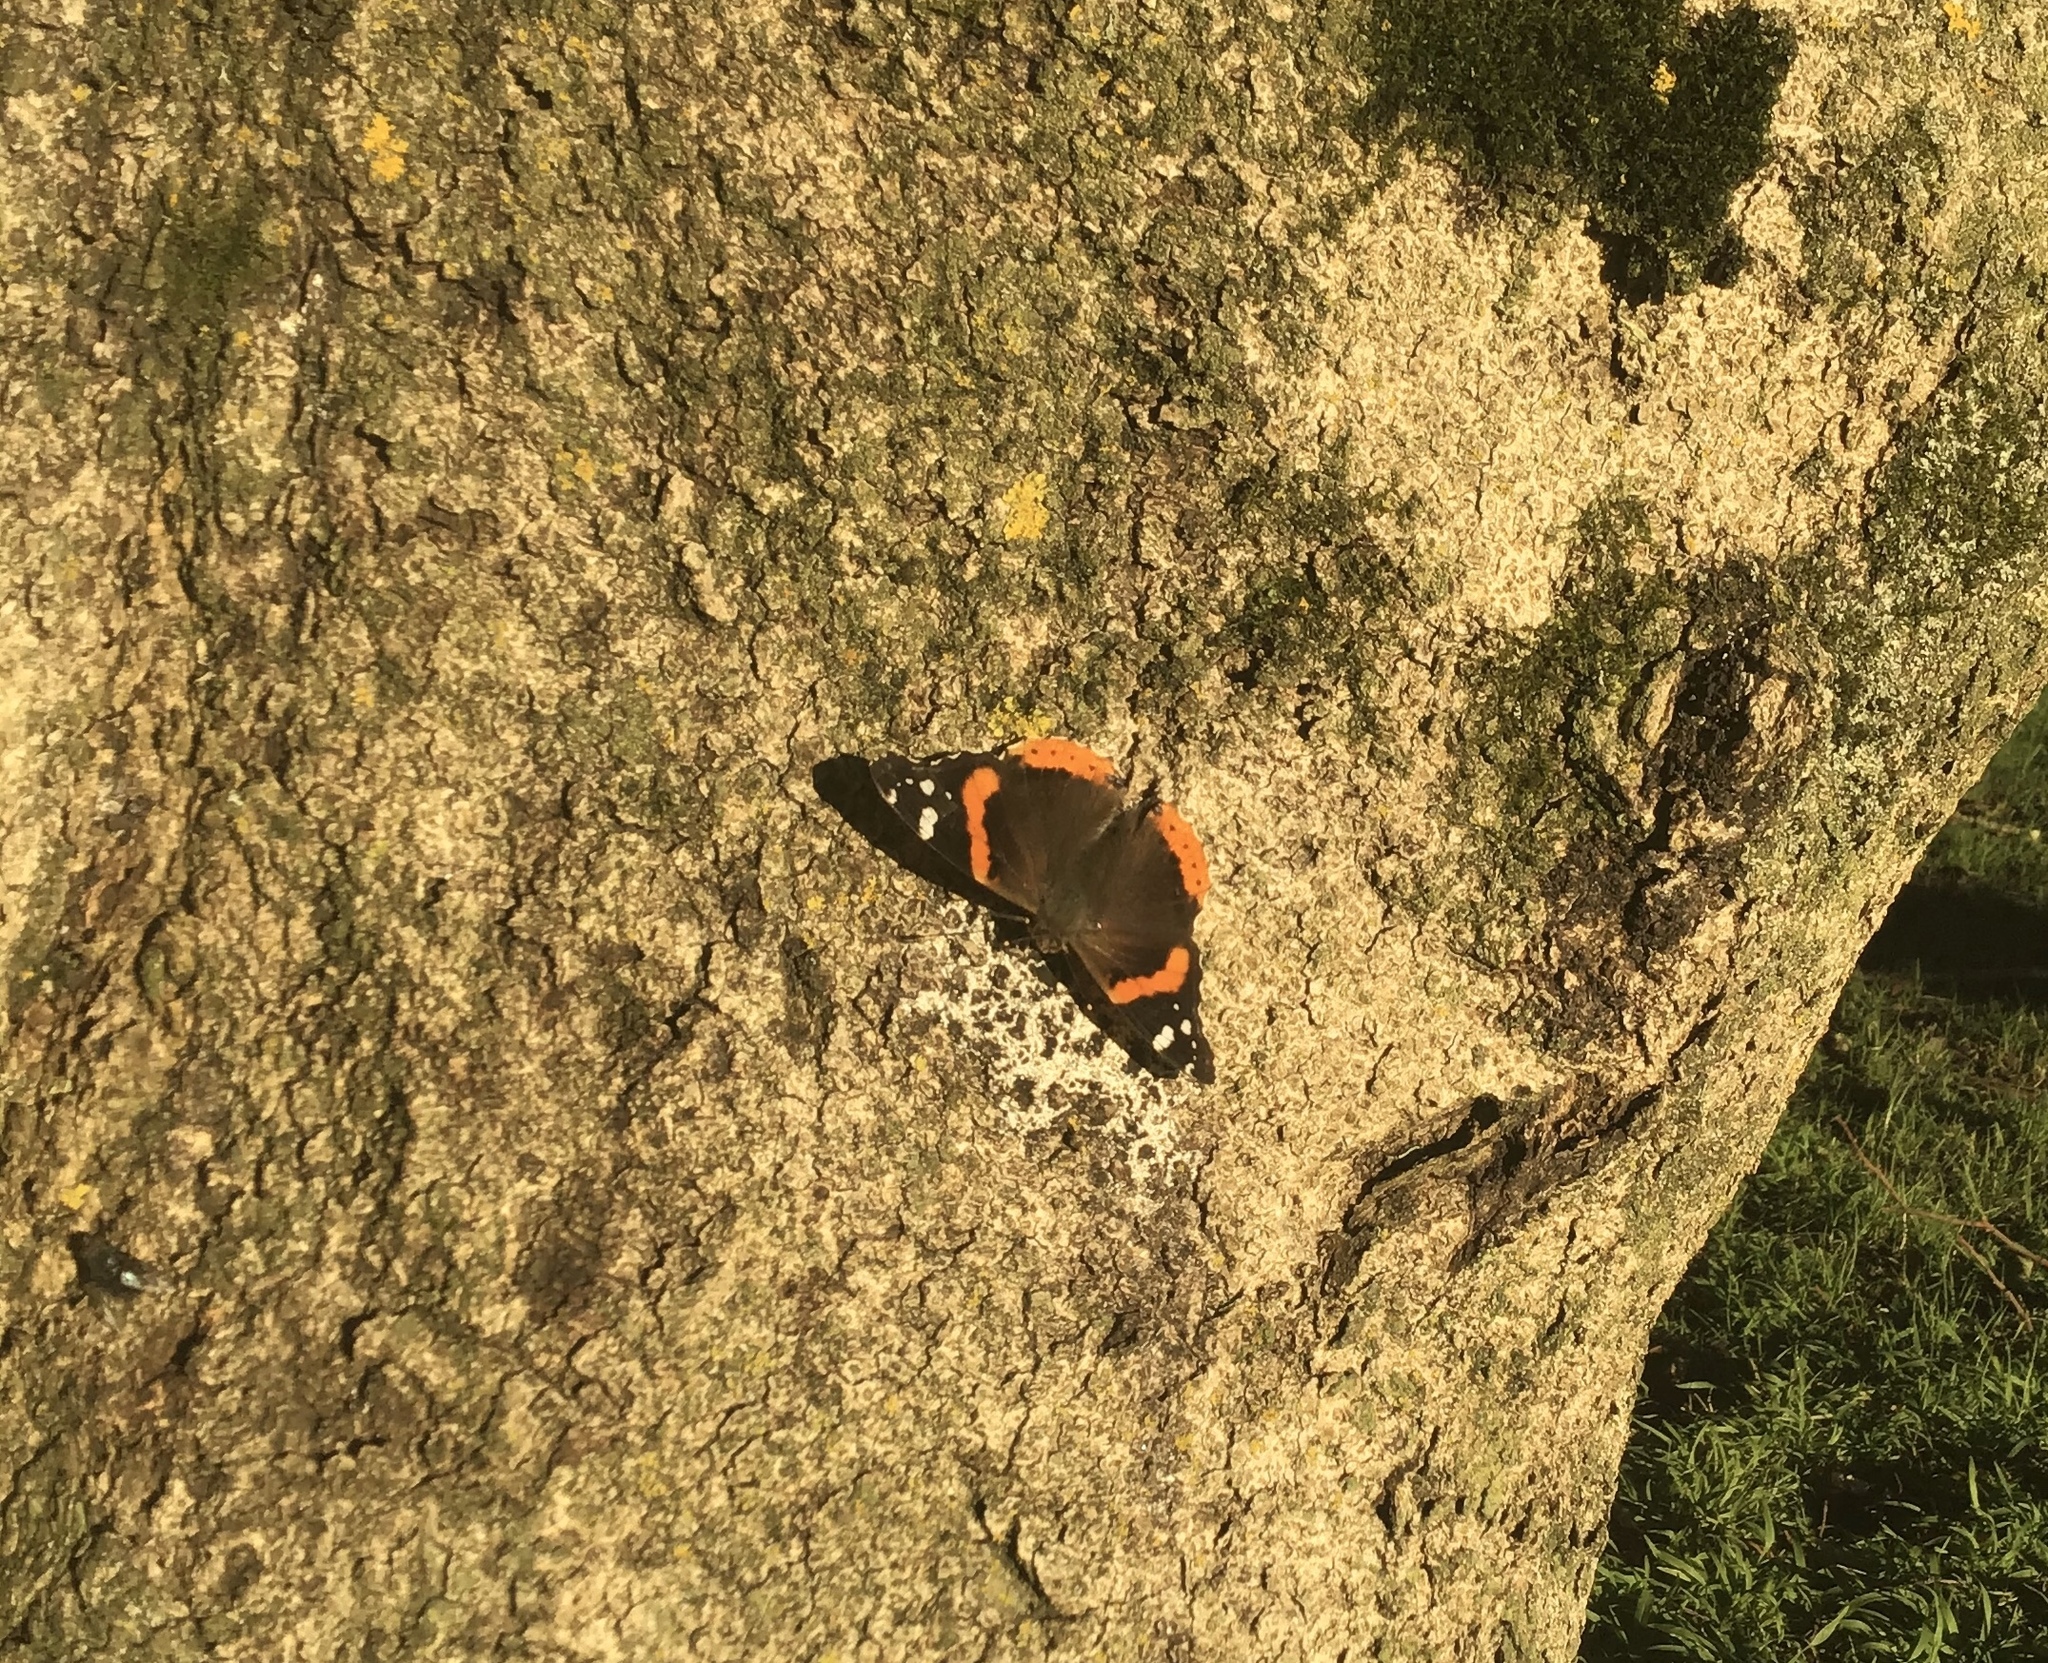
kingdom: Animalia
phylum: Arthropoda
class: Insecta
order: Lepidoptera
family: Nymphalidae
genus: Vanessa
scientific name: Vanessa atalanta
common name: Red admiral
